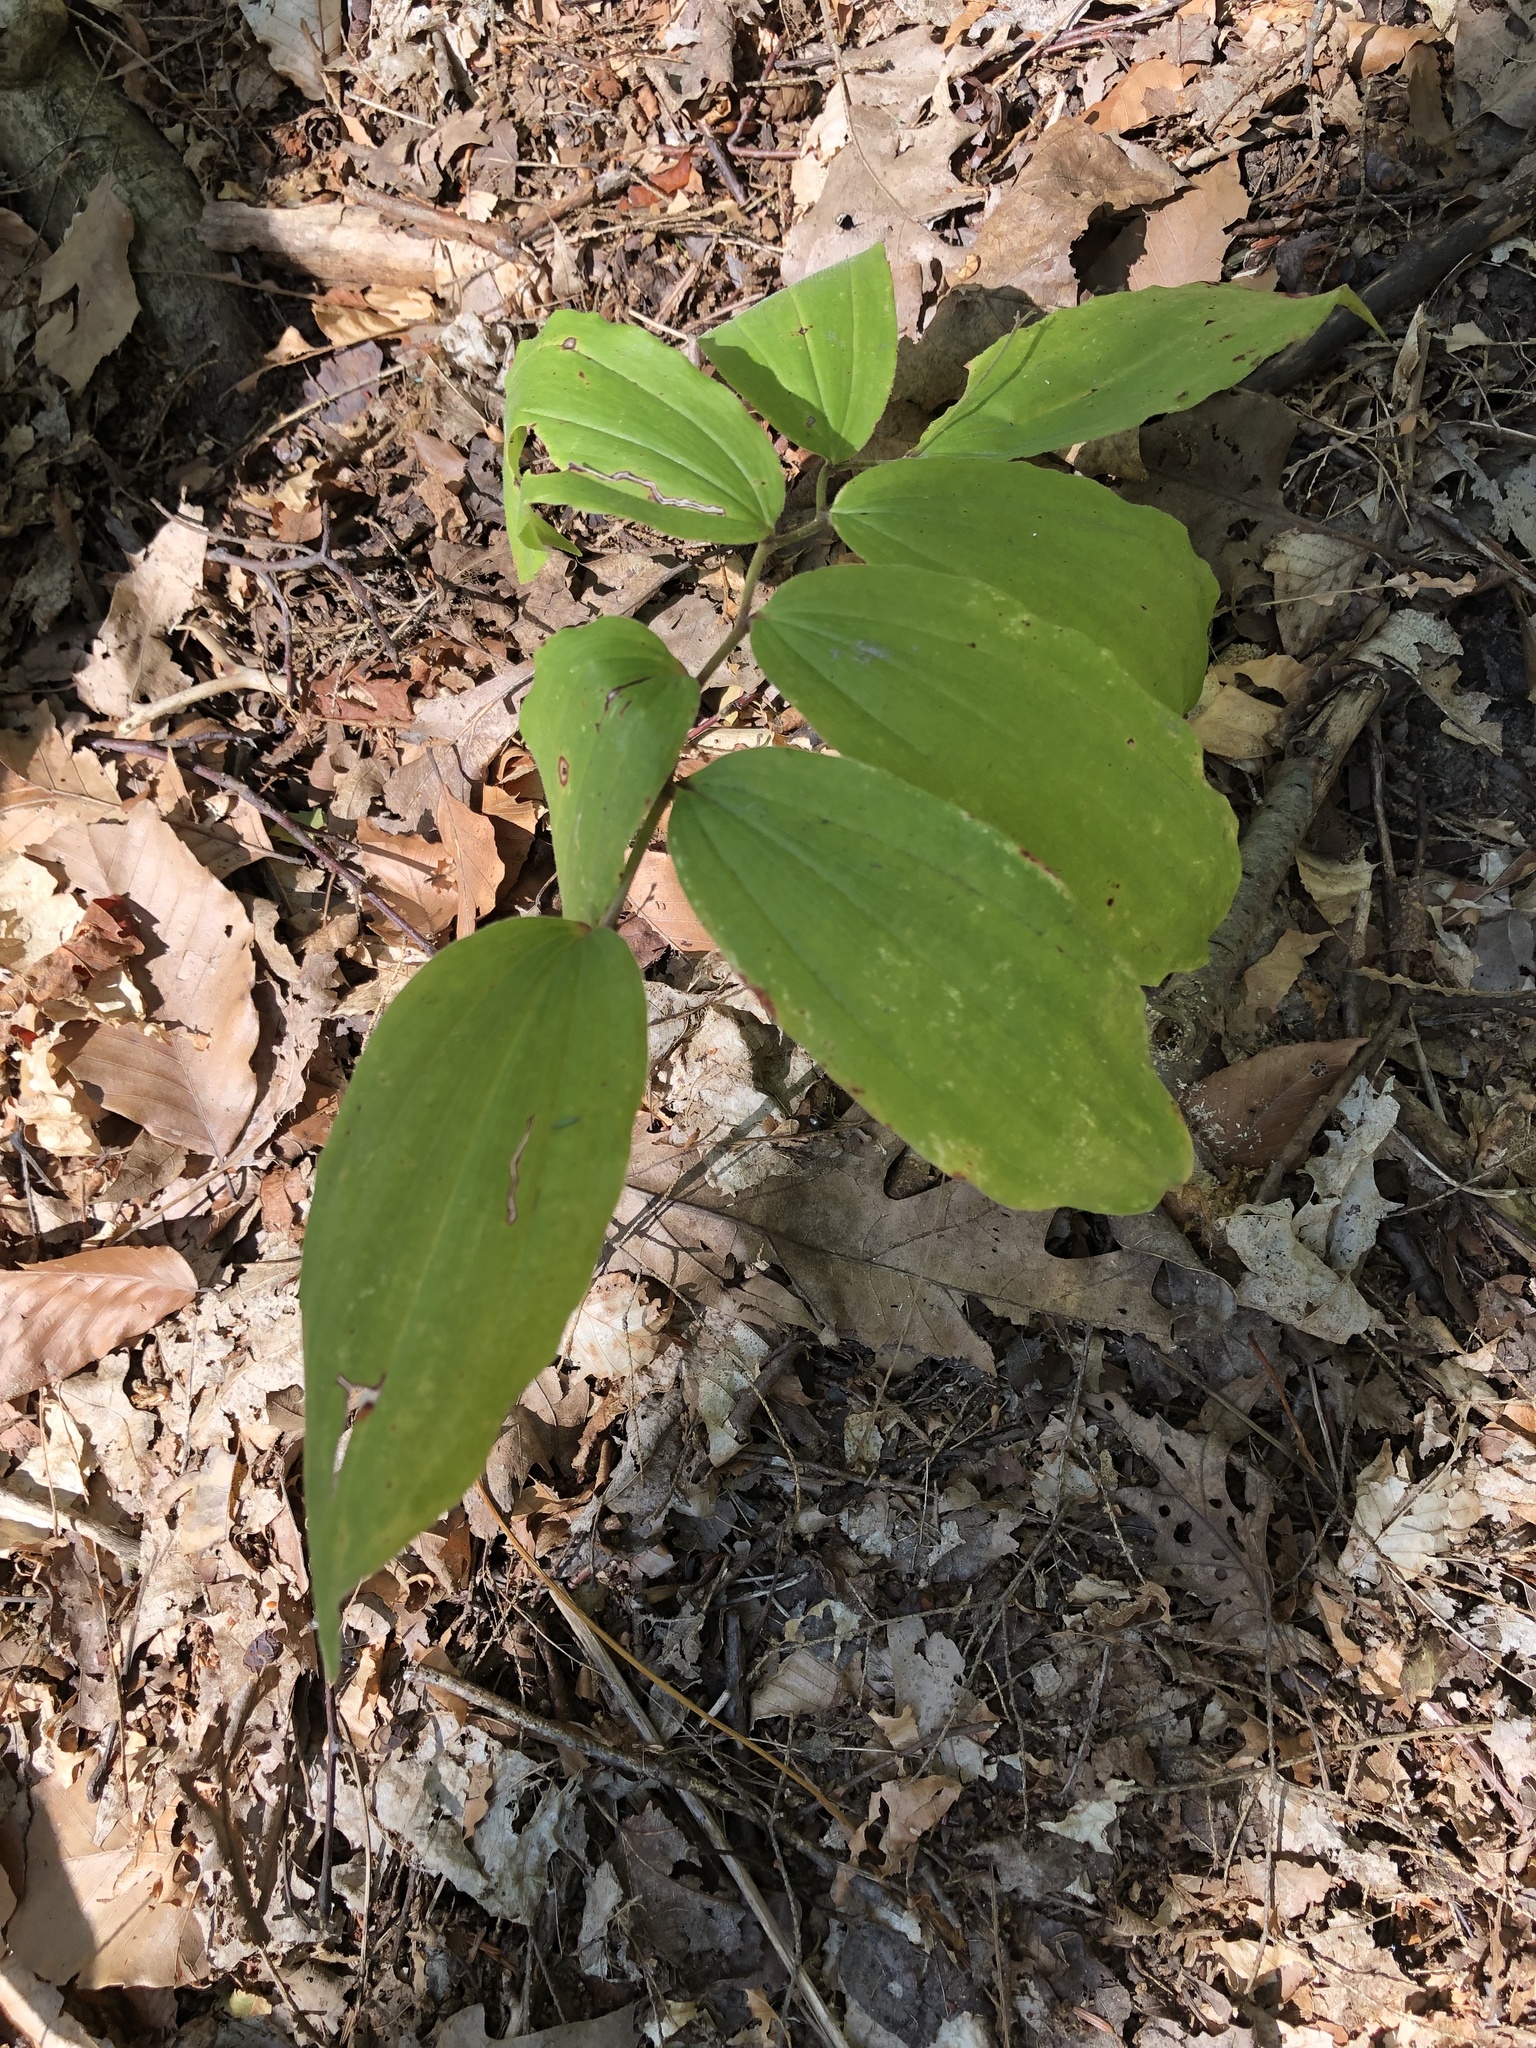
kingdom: Plantae
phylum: Tracheophyta
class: Liliopsida
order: Asparagales
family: Asparagaceae
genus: Maianthemum
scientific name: Maianthemum racemosum
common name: False spikenard
